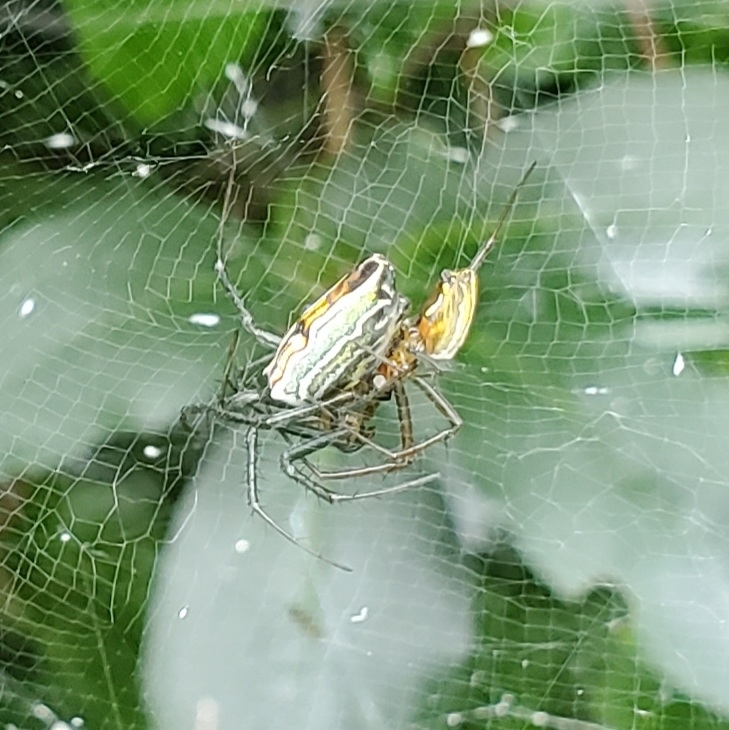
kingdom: Animalia
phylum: Arthropoda
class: Arachnida
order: Araneae
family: Araneidae
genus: Mecynogea
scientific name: Mecynogea lemniscata
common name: Orb weavers
